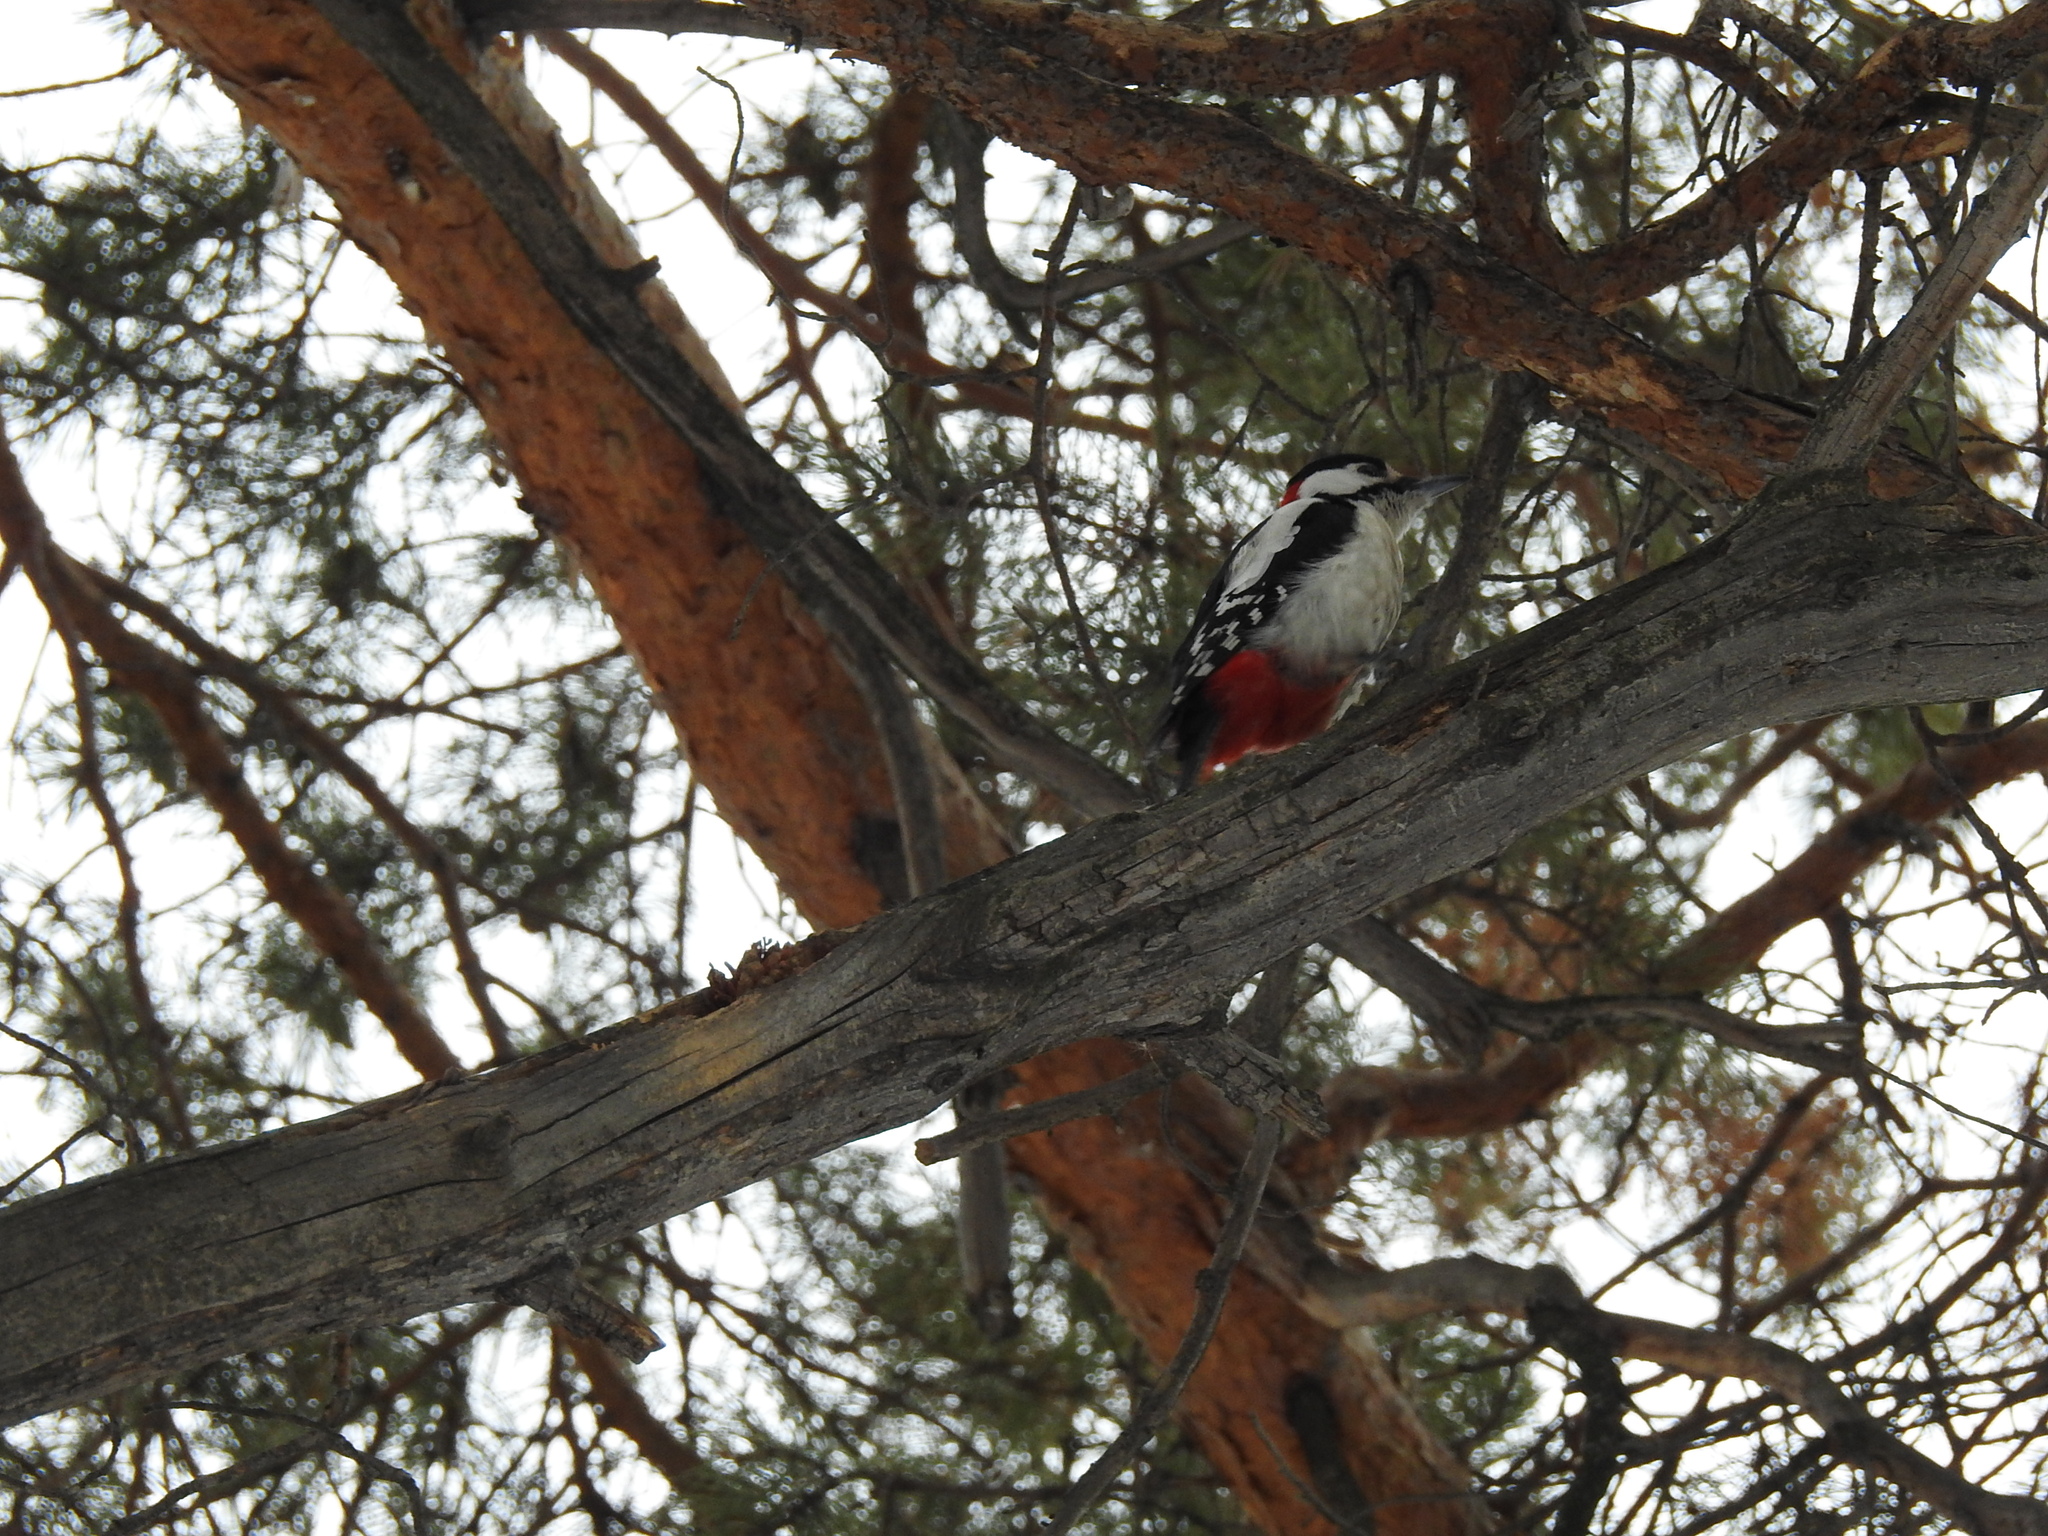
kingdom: Animalia
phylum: Chordata
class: Aves
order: Piciformes
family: Picidae
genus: Dendrocopos
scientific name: Dendrocopos major
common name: Great spotted woodpecker
